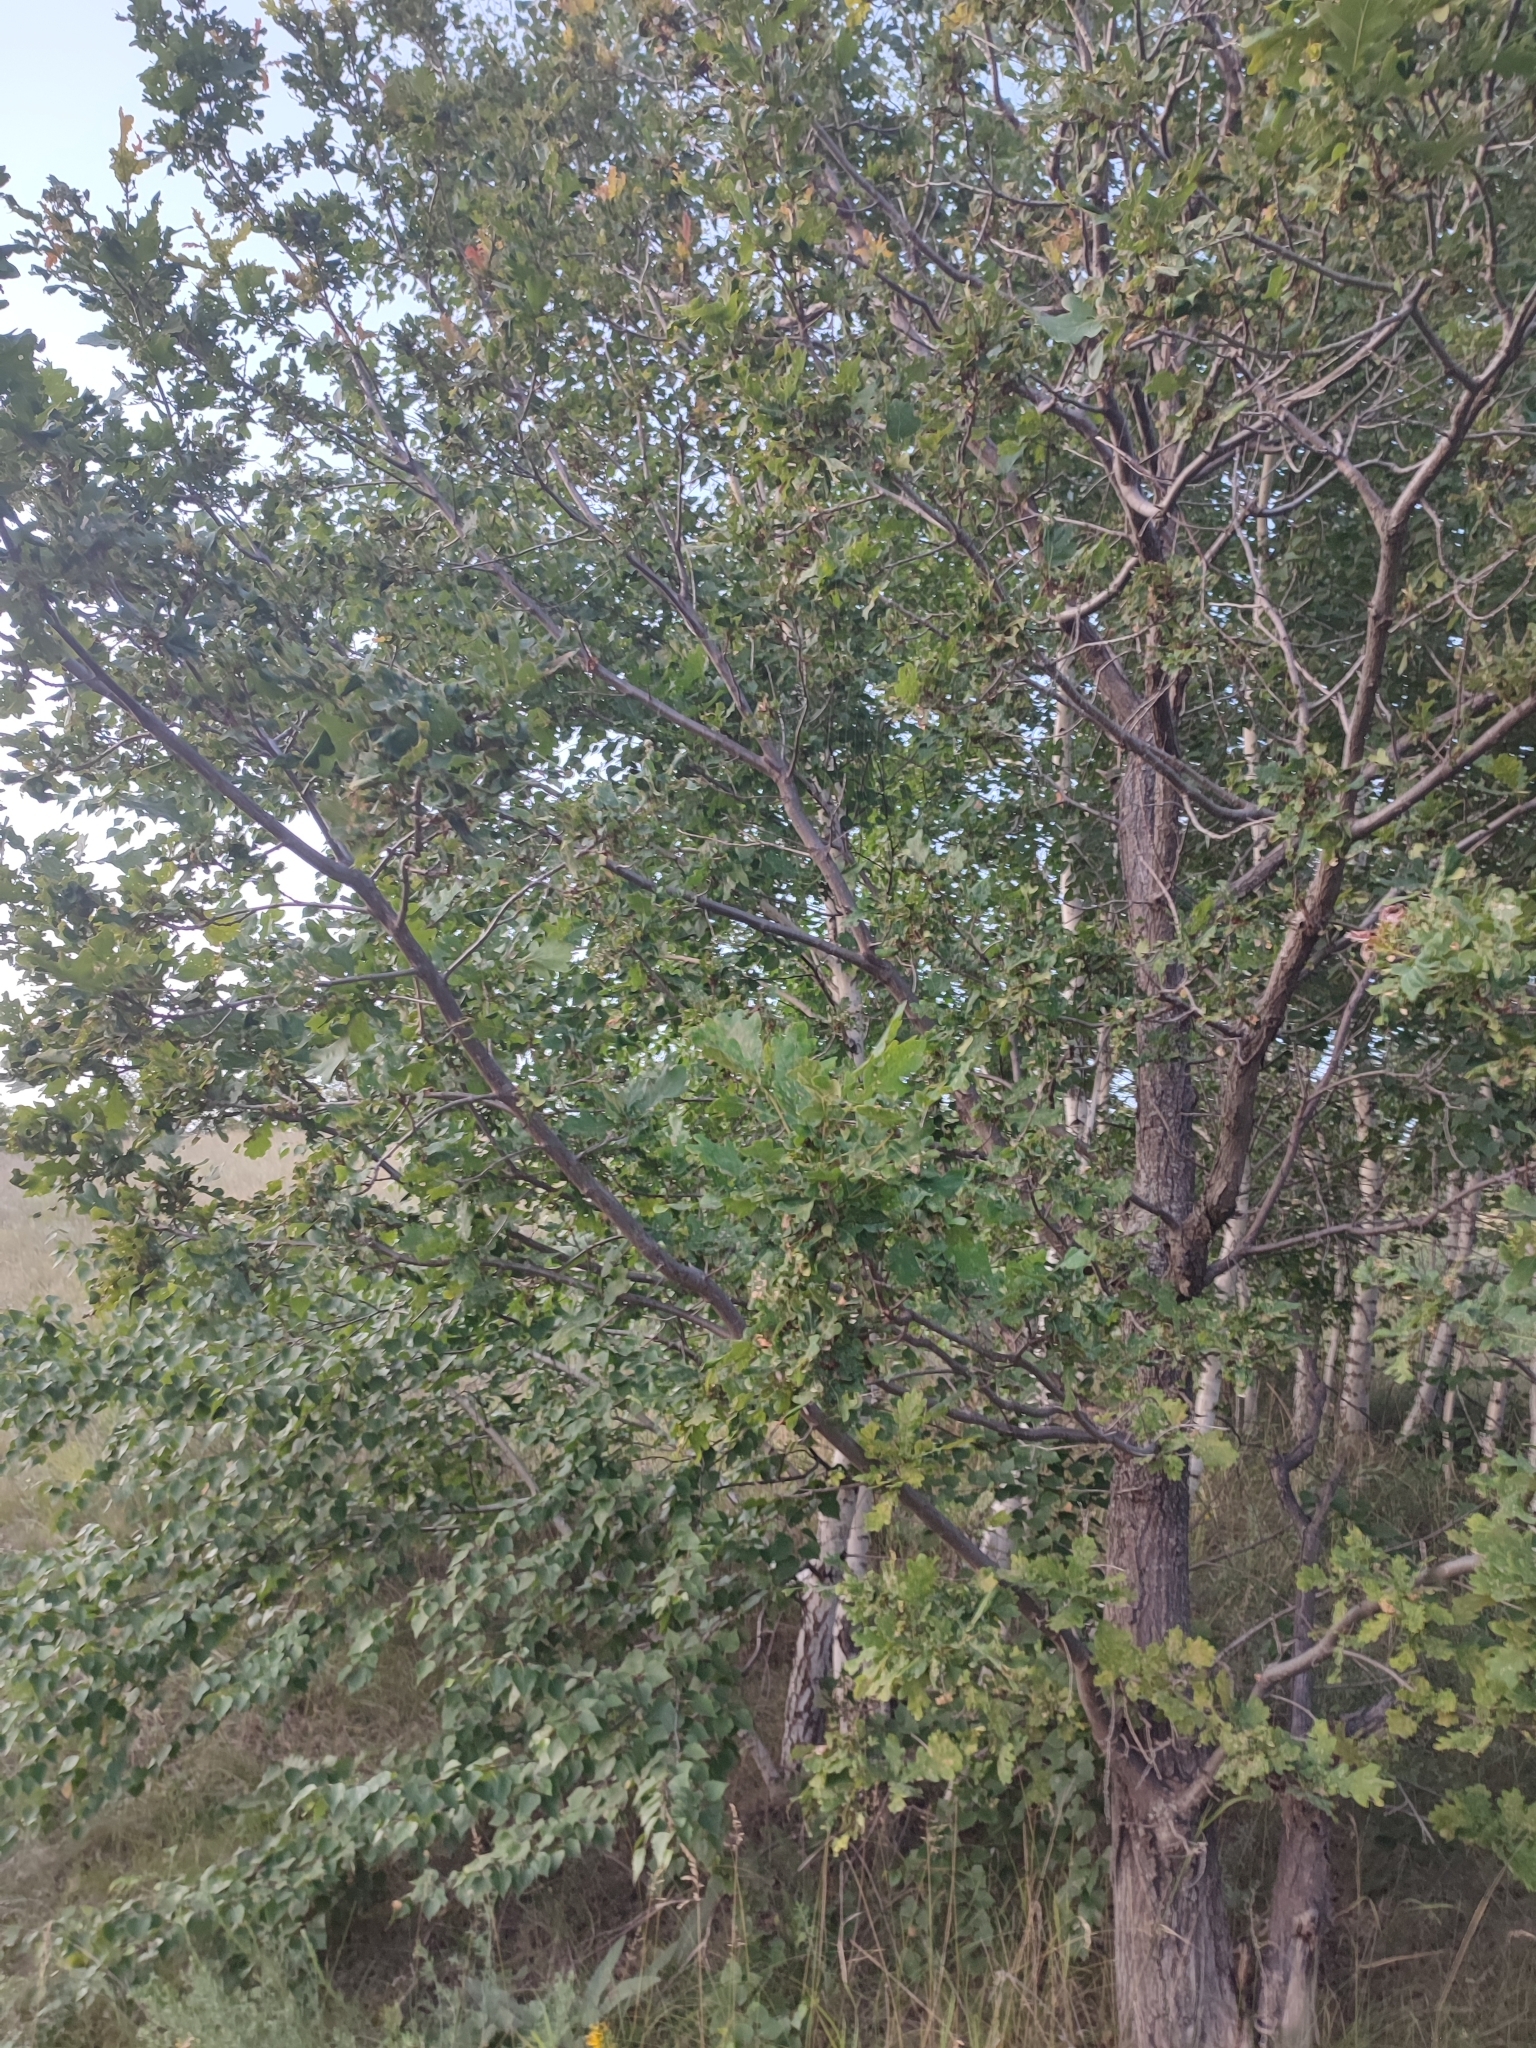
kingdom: Plantae
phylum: Tracheophyta
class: Magnoliopsida
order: Fagales
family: Fagaceae
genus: Quercus
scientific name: Quercus robur
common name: Pedunculate oak
